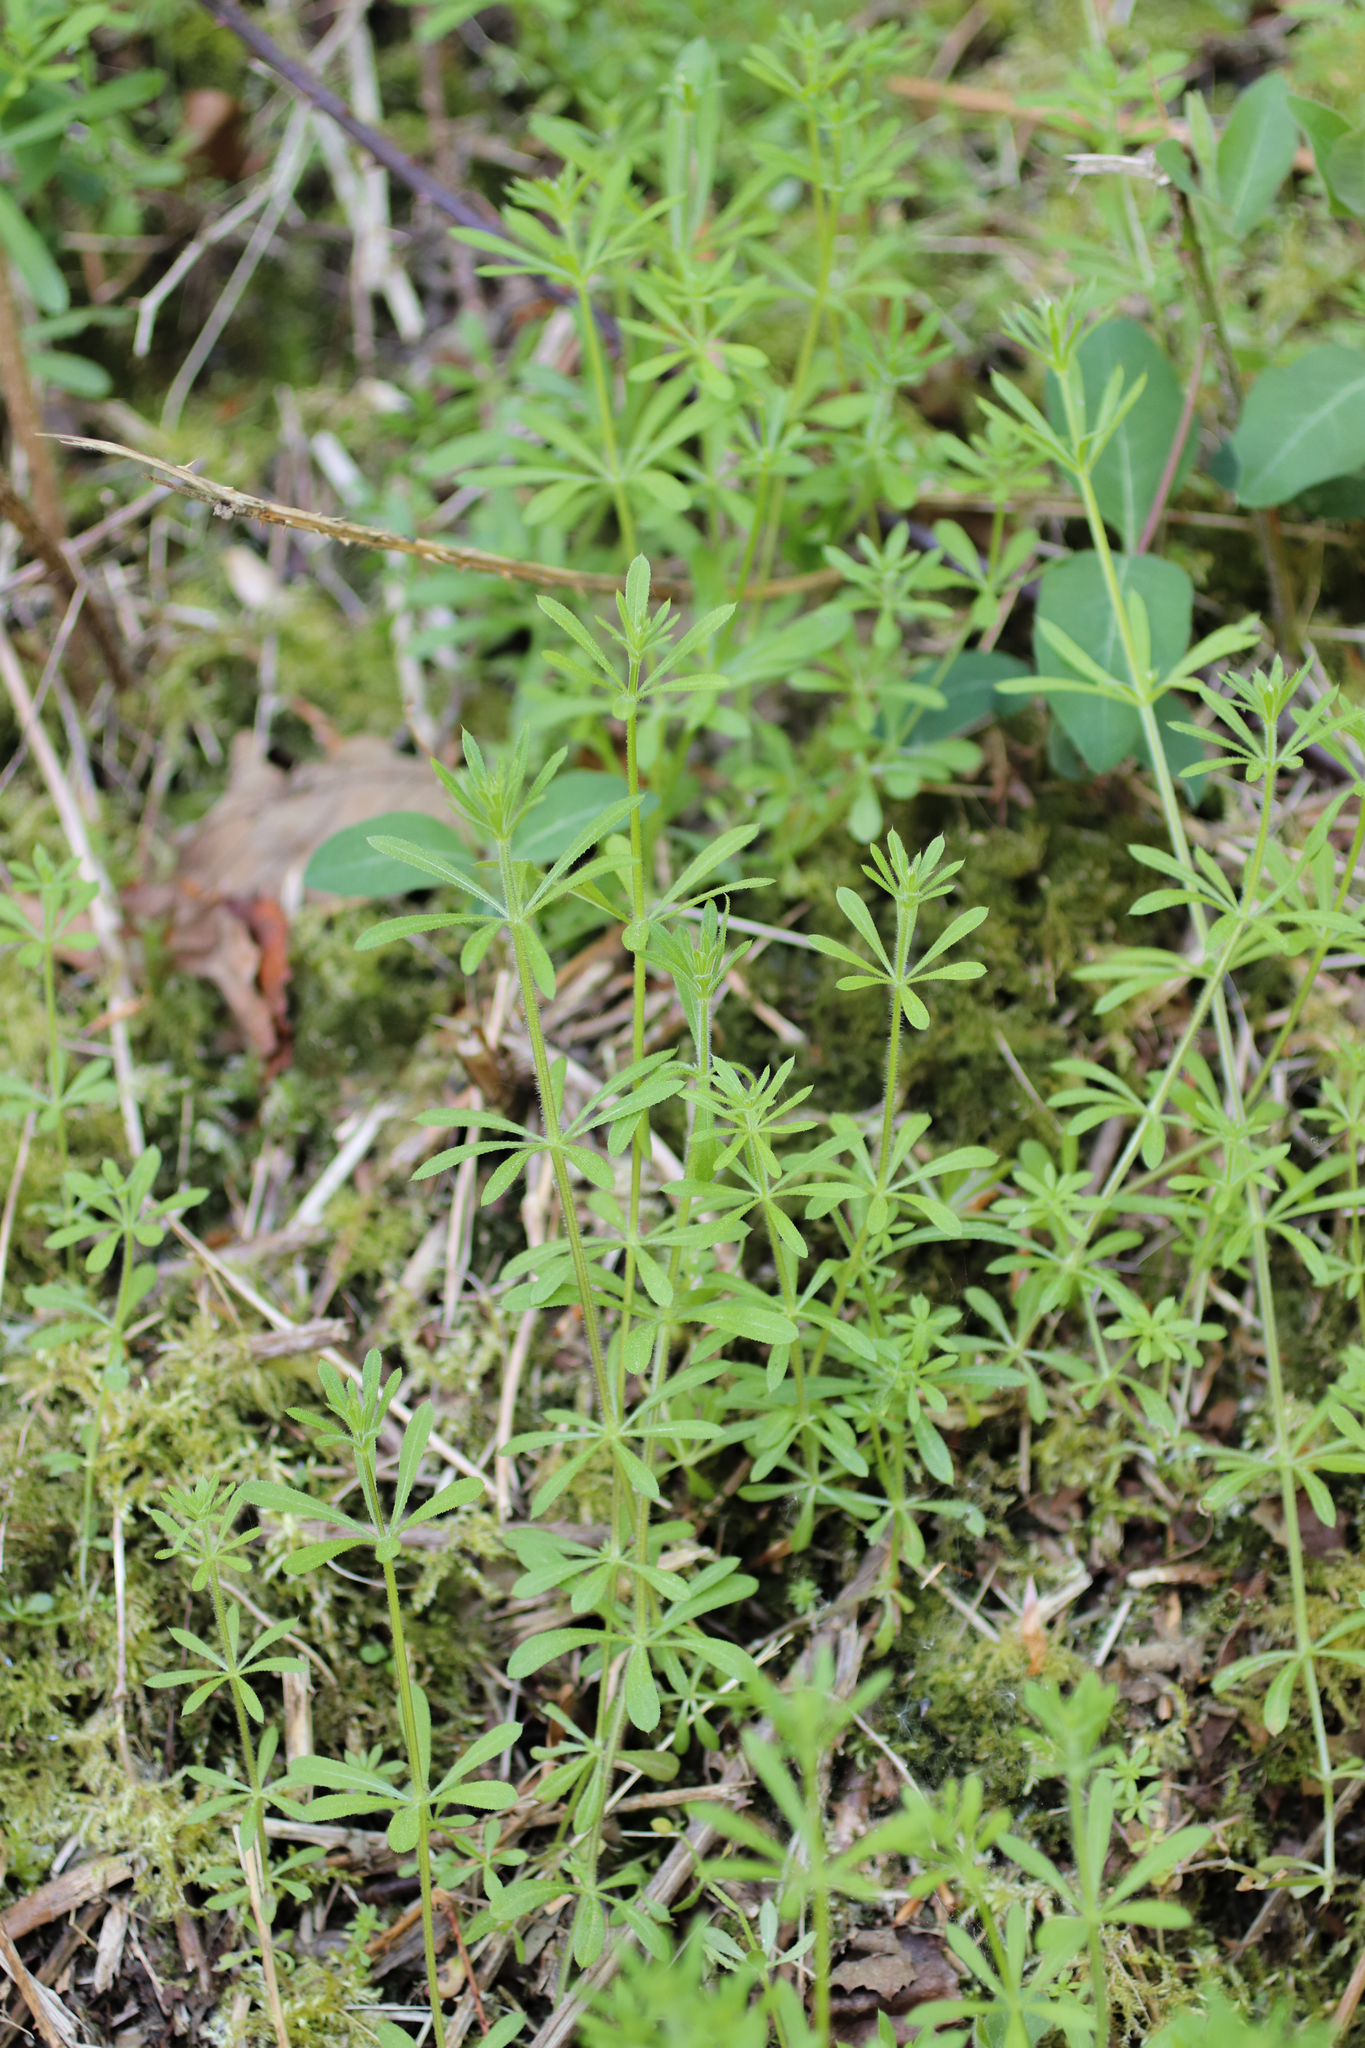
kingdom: Plantae
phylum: Tracheophyta
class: Magnoliopsida
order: Gentianales
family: Rubiaceae
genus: Galium
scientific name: Galium aparine
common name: Cleavers
